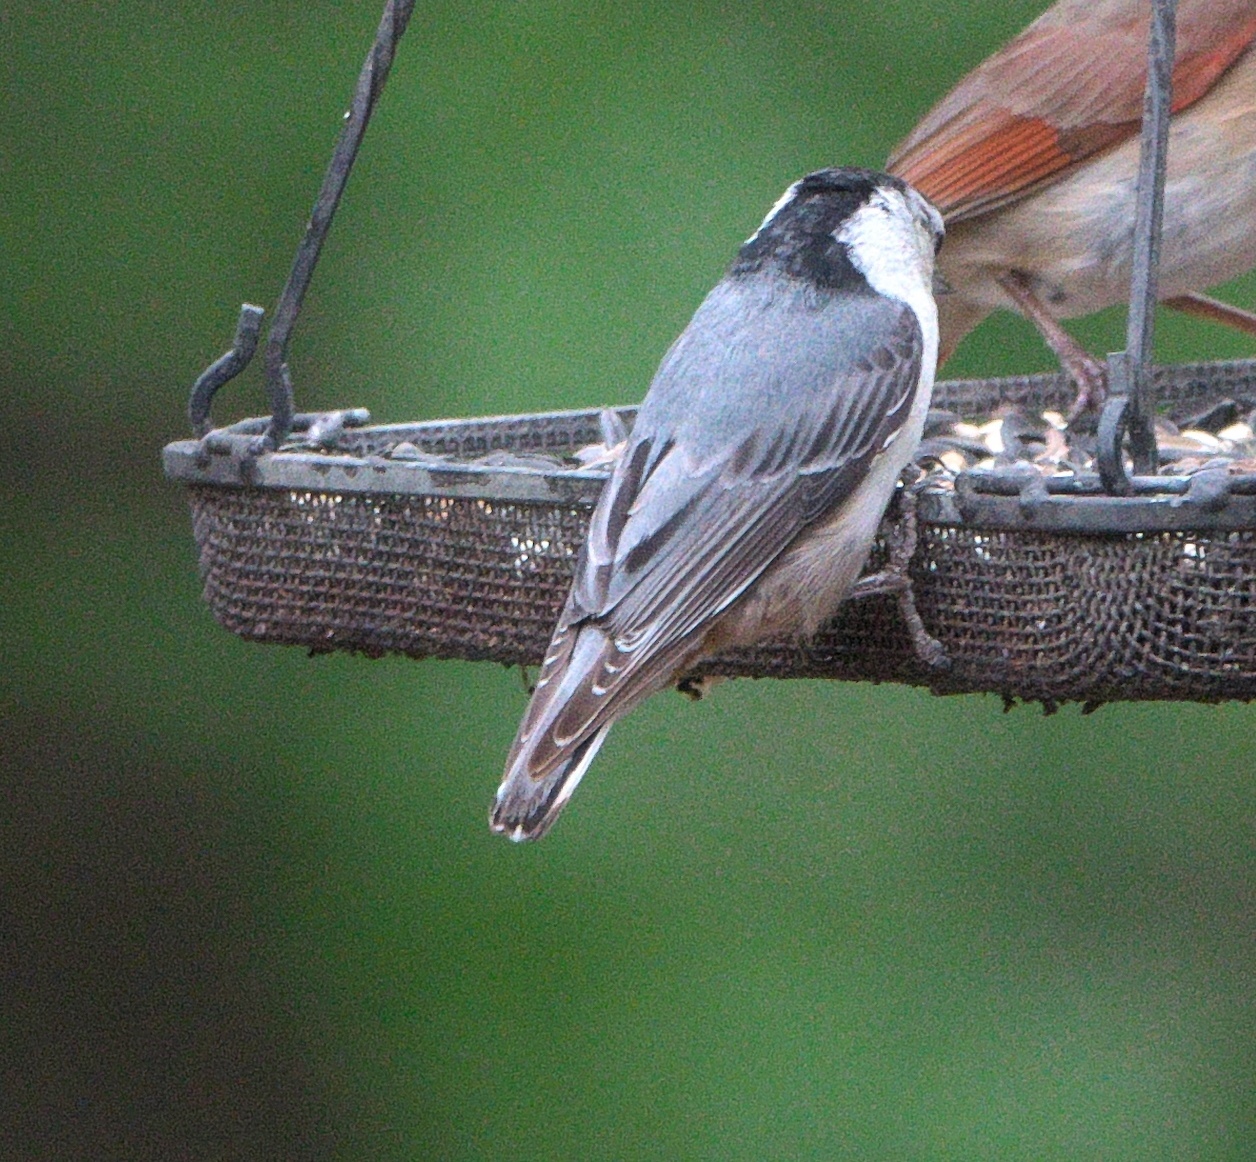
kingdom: Animalia
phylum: Chordata
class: Aves
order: Passeriformes
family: Sittidae
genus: Sitta
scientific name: Sitta carolinensis
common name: White-breasted nuthatch
